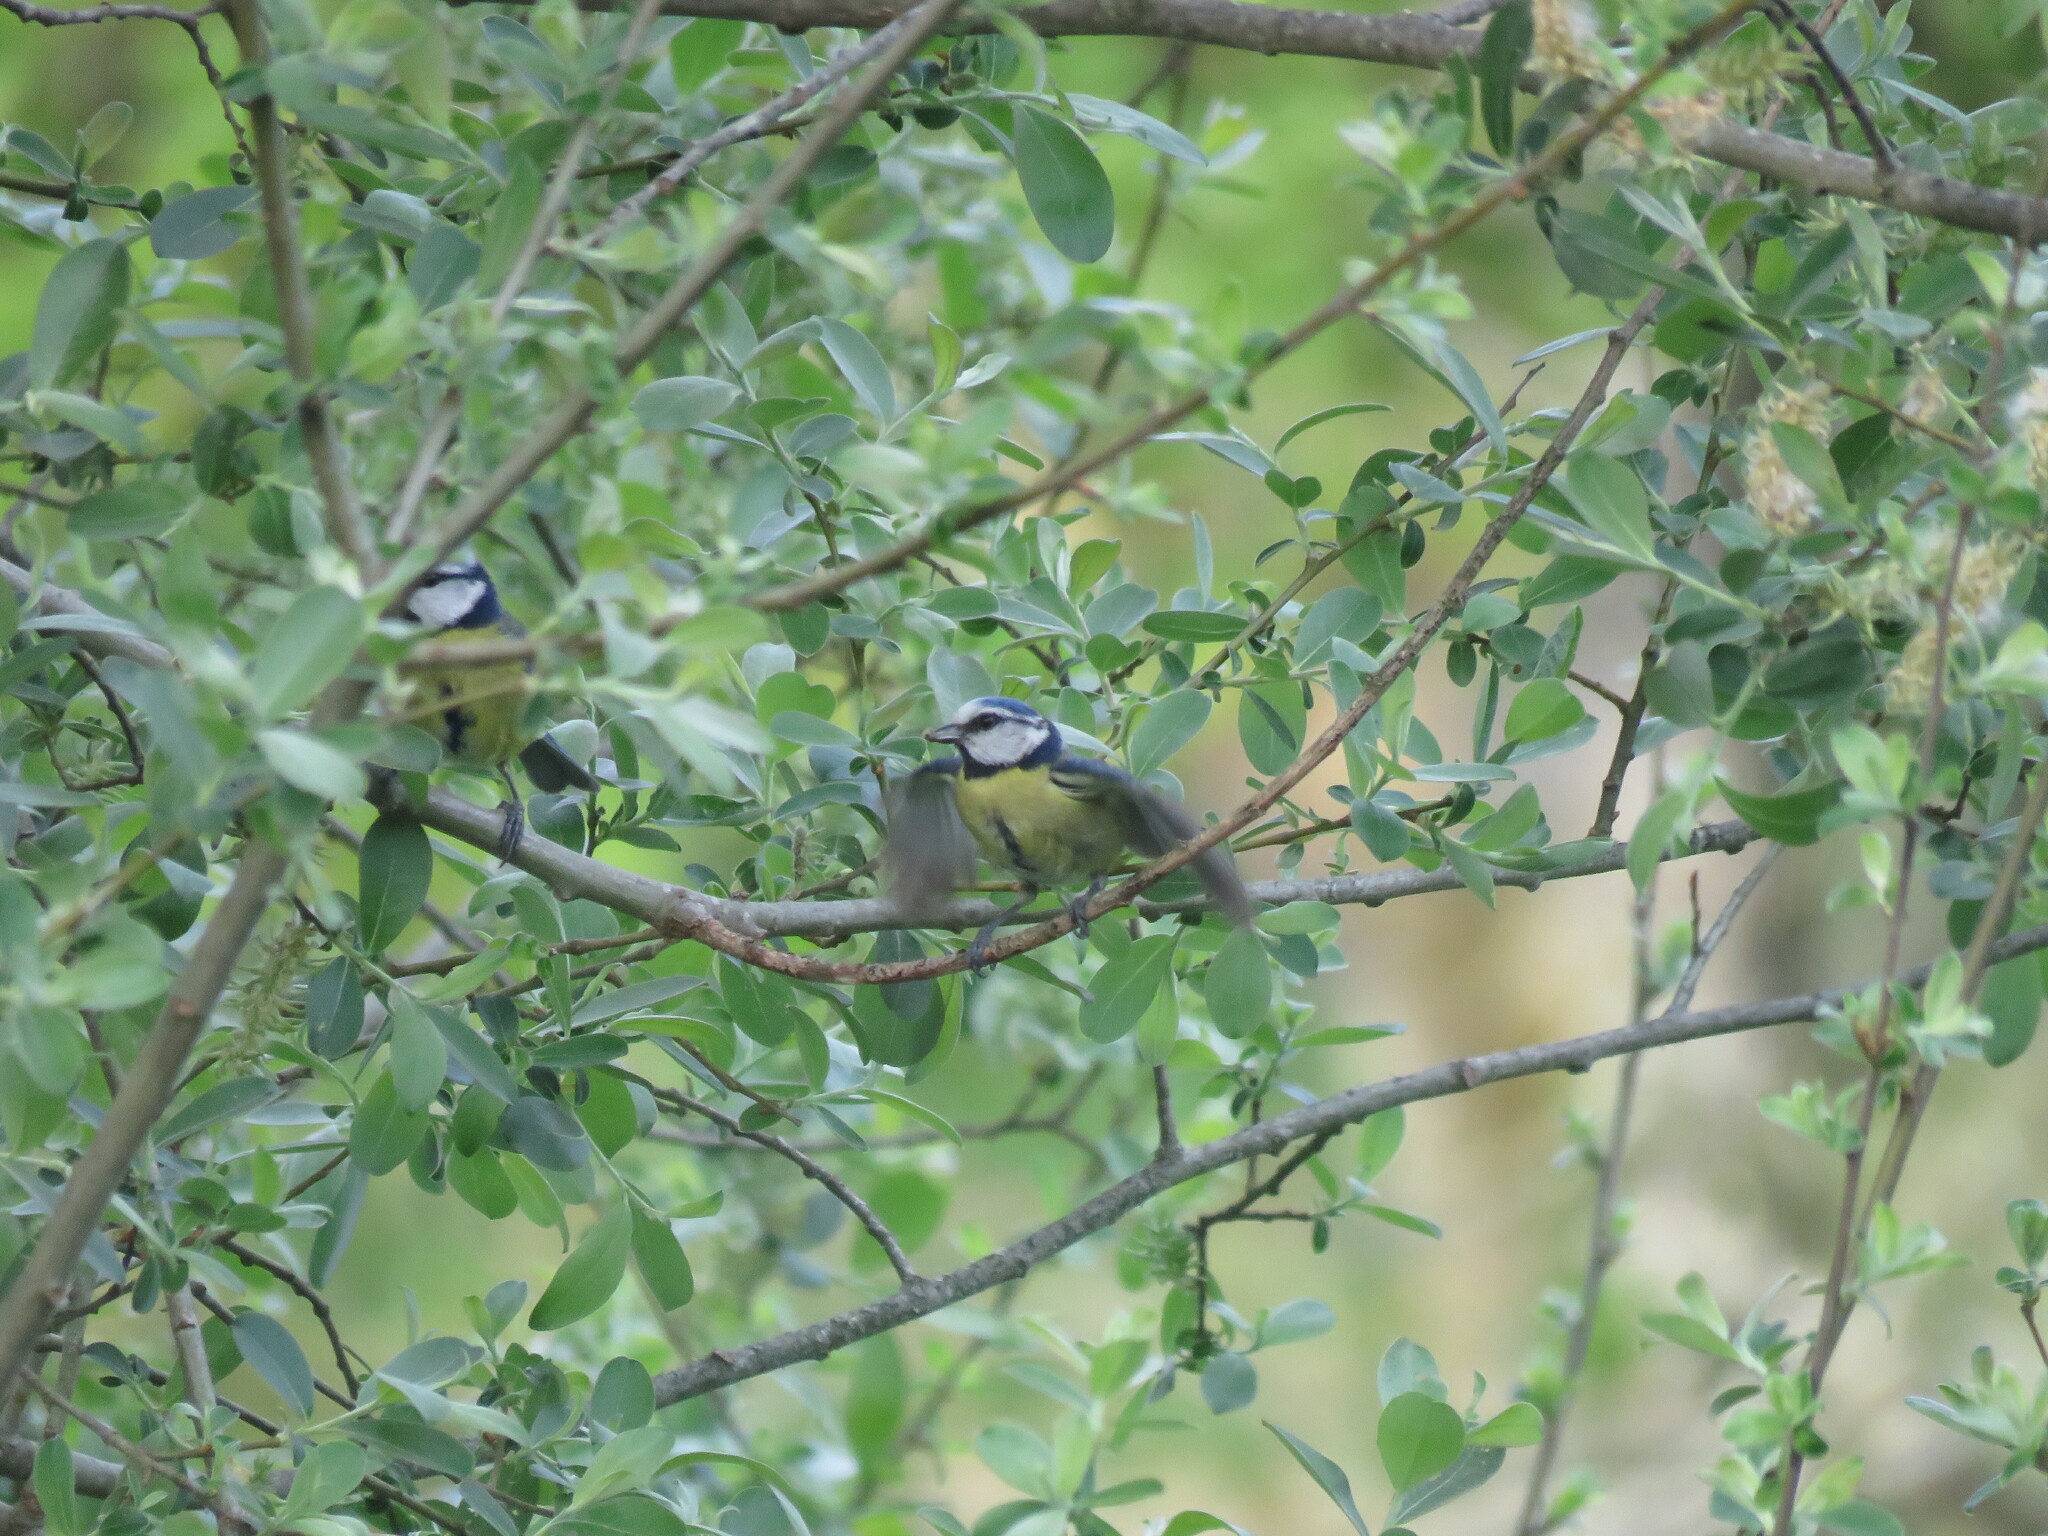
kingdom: Animalia
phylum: Chordata
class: Aves
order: Passeriformes
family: Paridae
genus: Cyanistes
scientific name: Cyanistes caeruleus
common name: Eurasian blue tit
